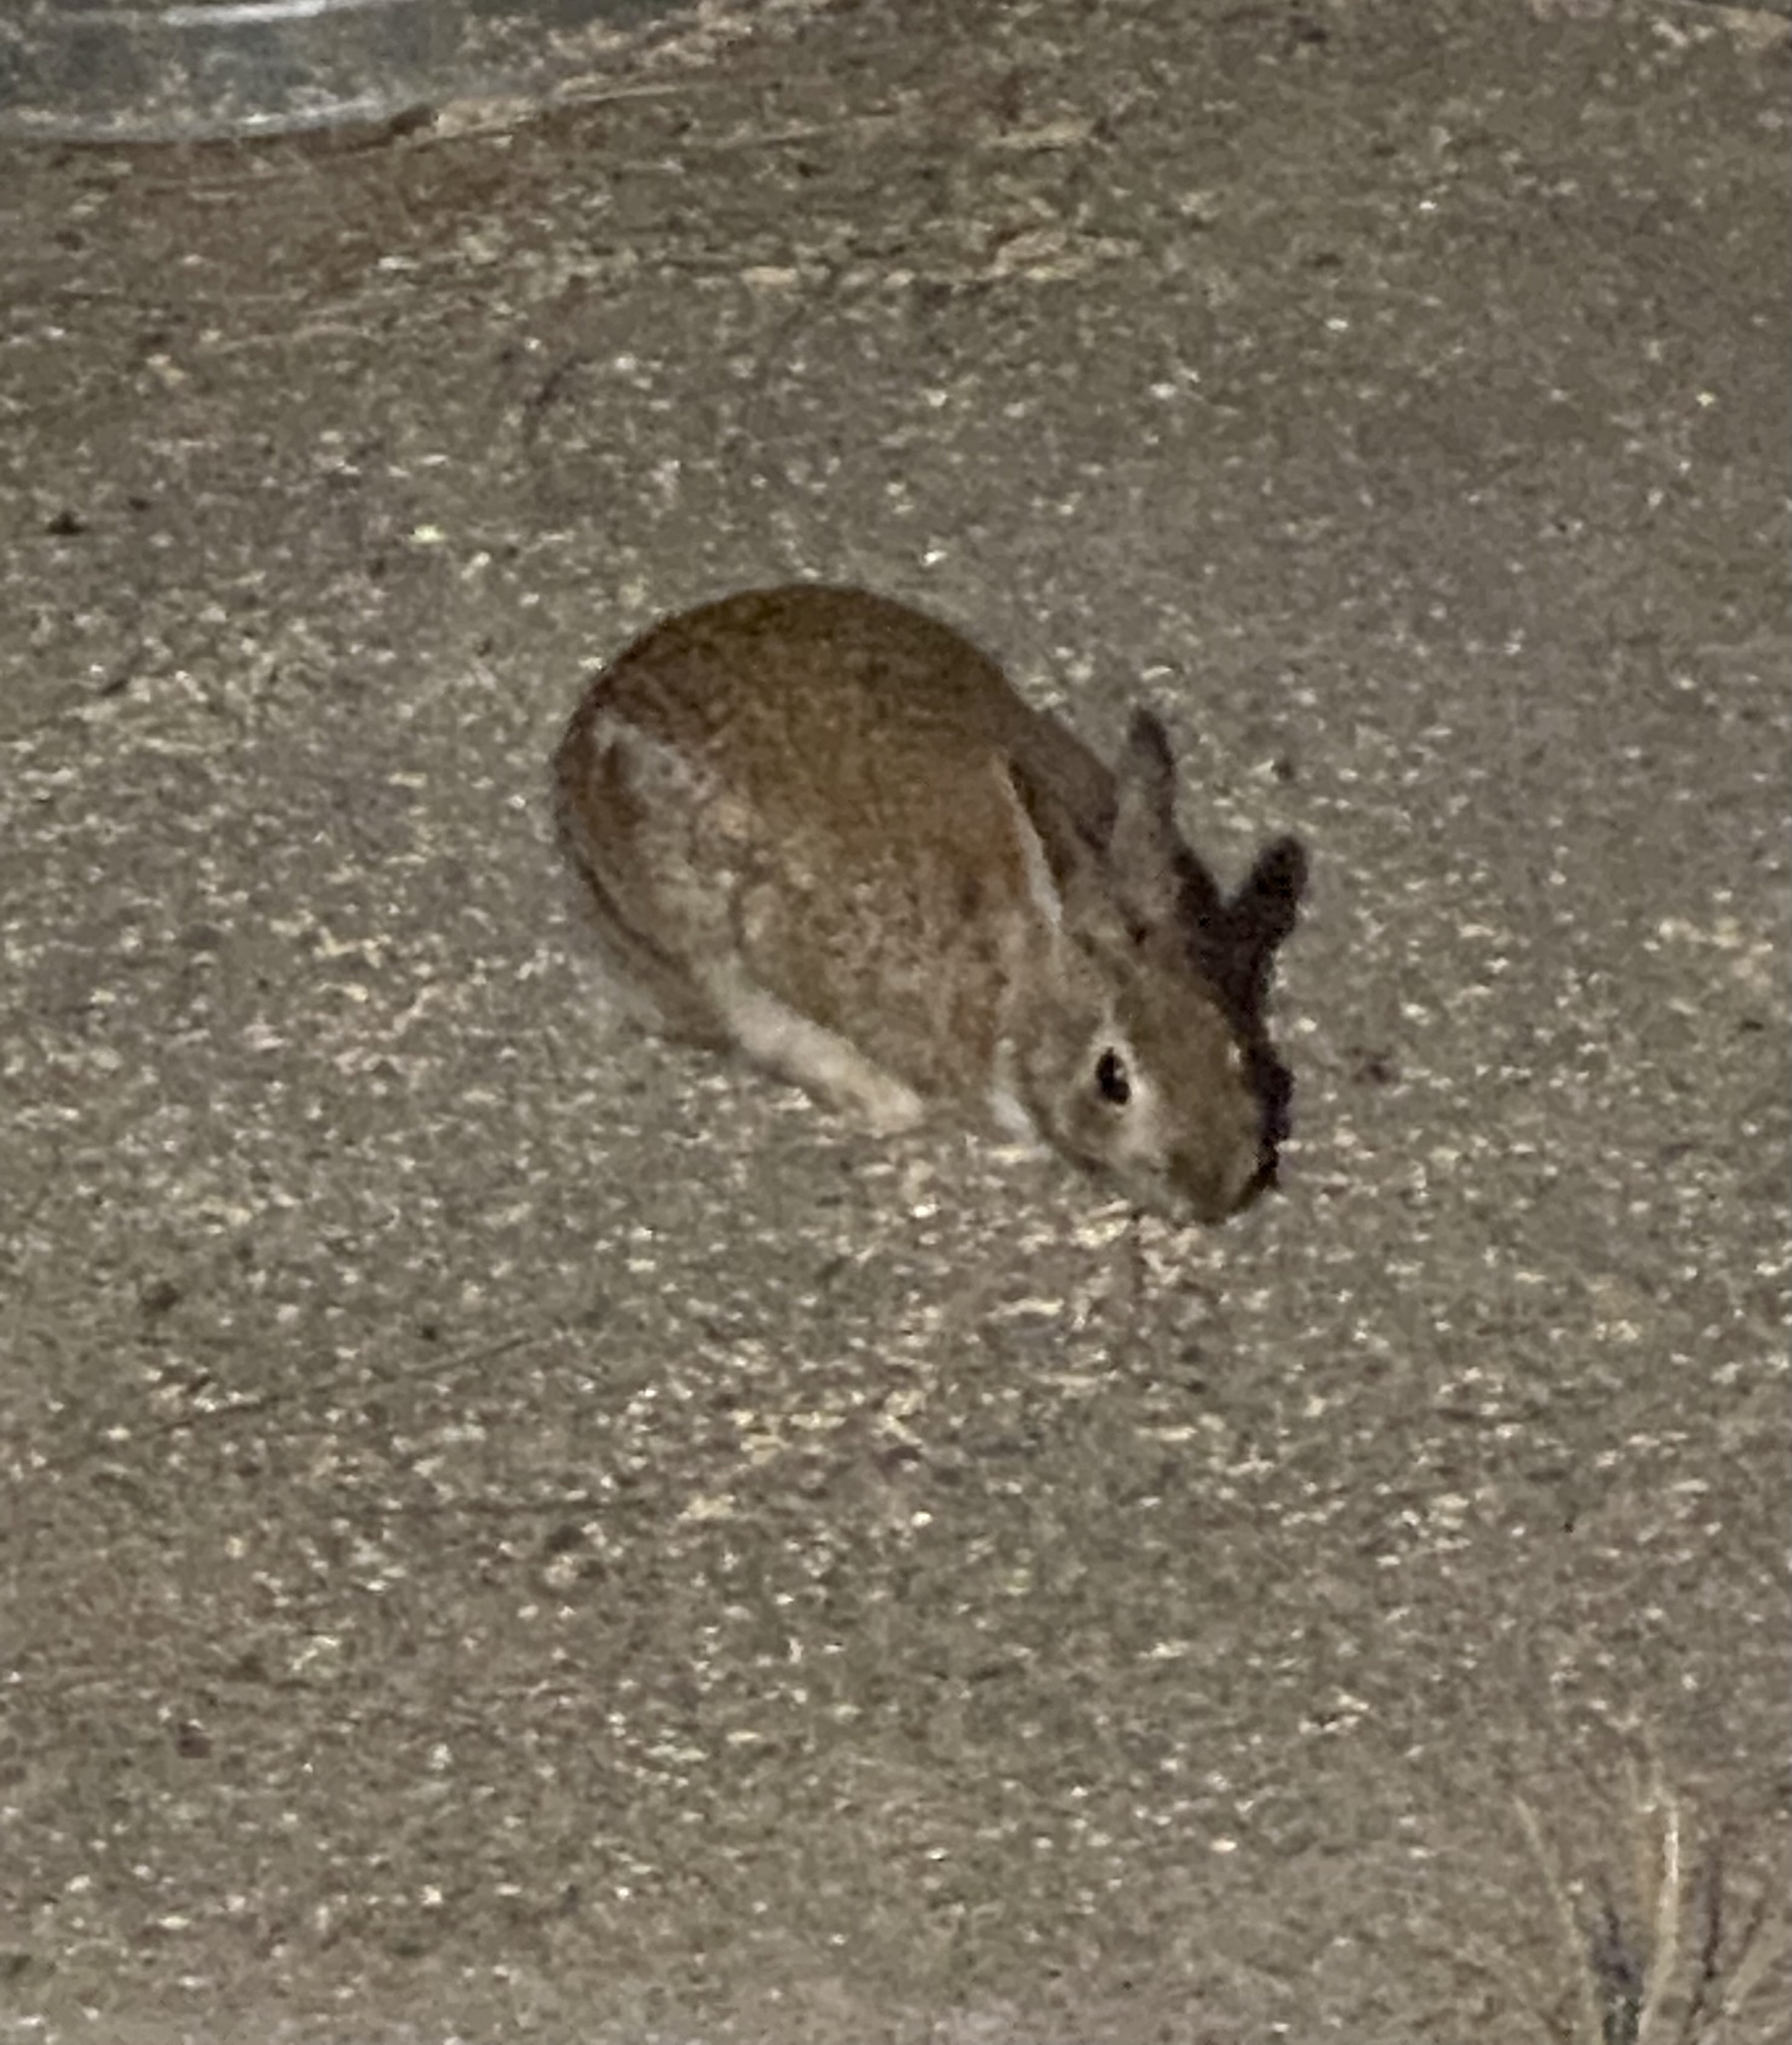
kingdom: Animalia
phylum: Chordata
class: Mammalia
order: Lagomorpha
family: Leporidae
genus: Sylvilagus
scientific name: Sylvilagus floridanus
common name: Eastern cottontail
